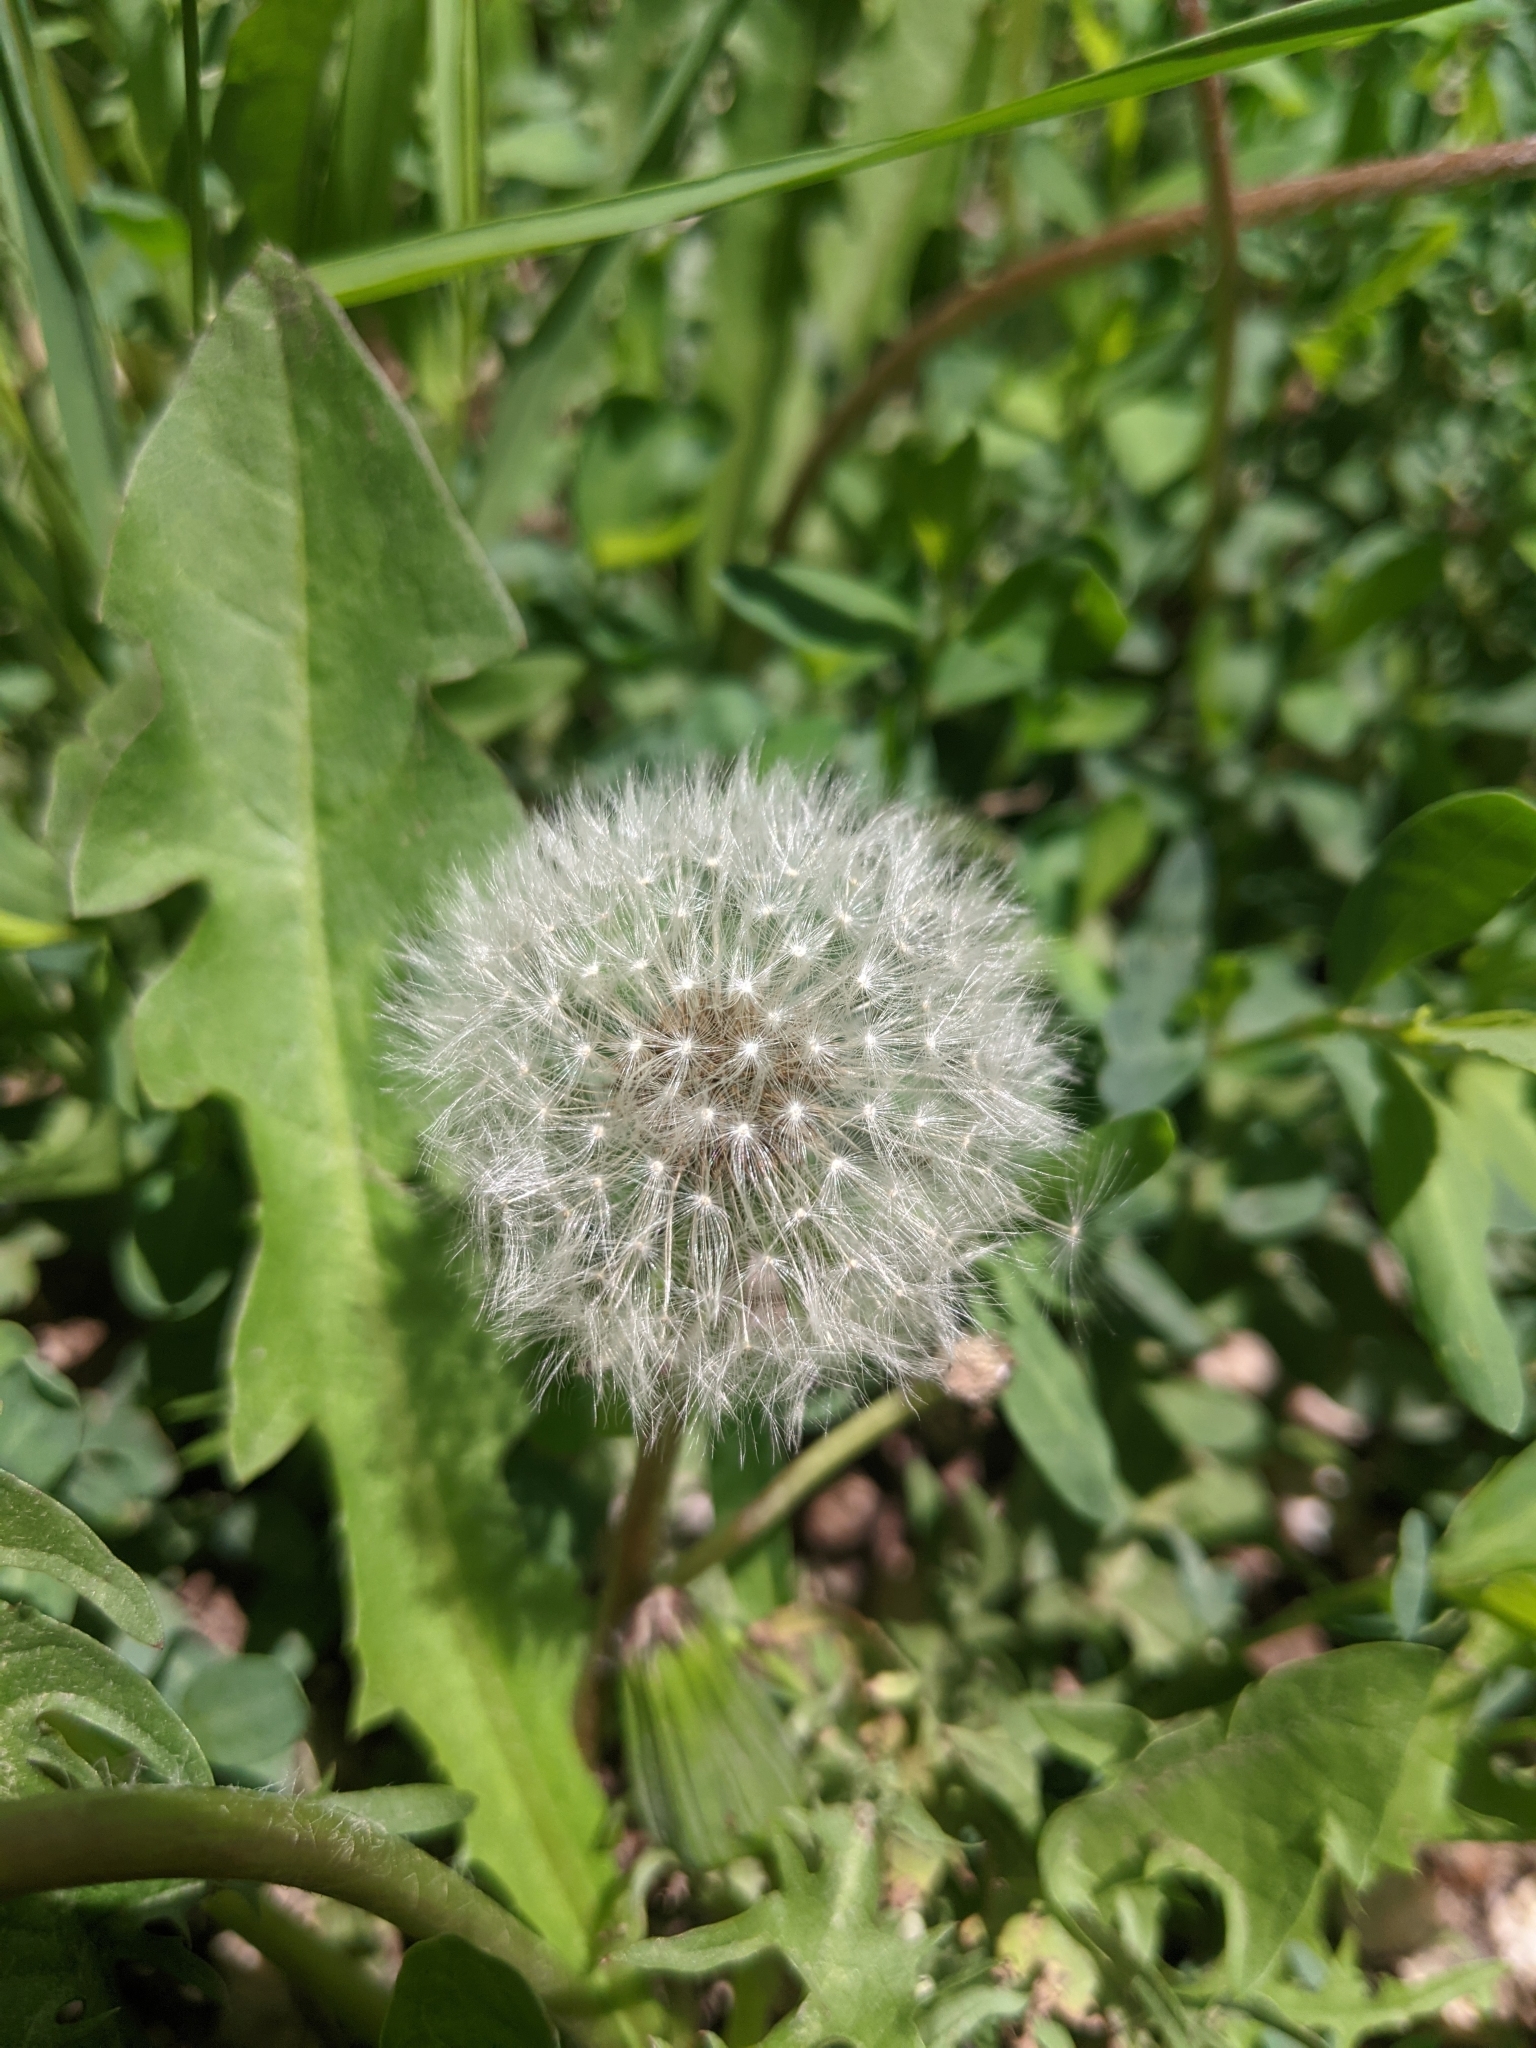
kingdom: Plantae
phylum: Tracheophyta
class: Magnoliopsida
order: Asterales
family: Asteraceae
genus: Taraxacum
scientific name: Taraxacum mongolicum
